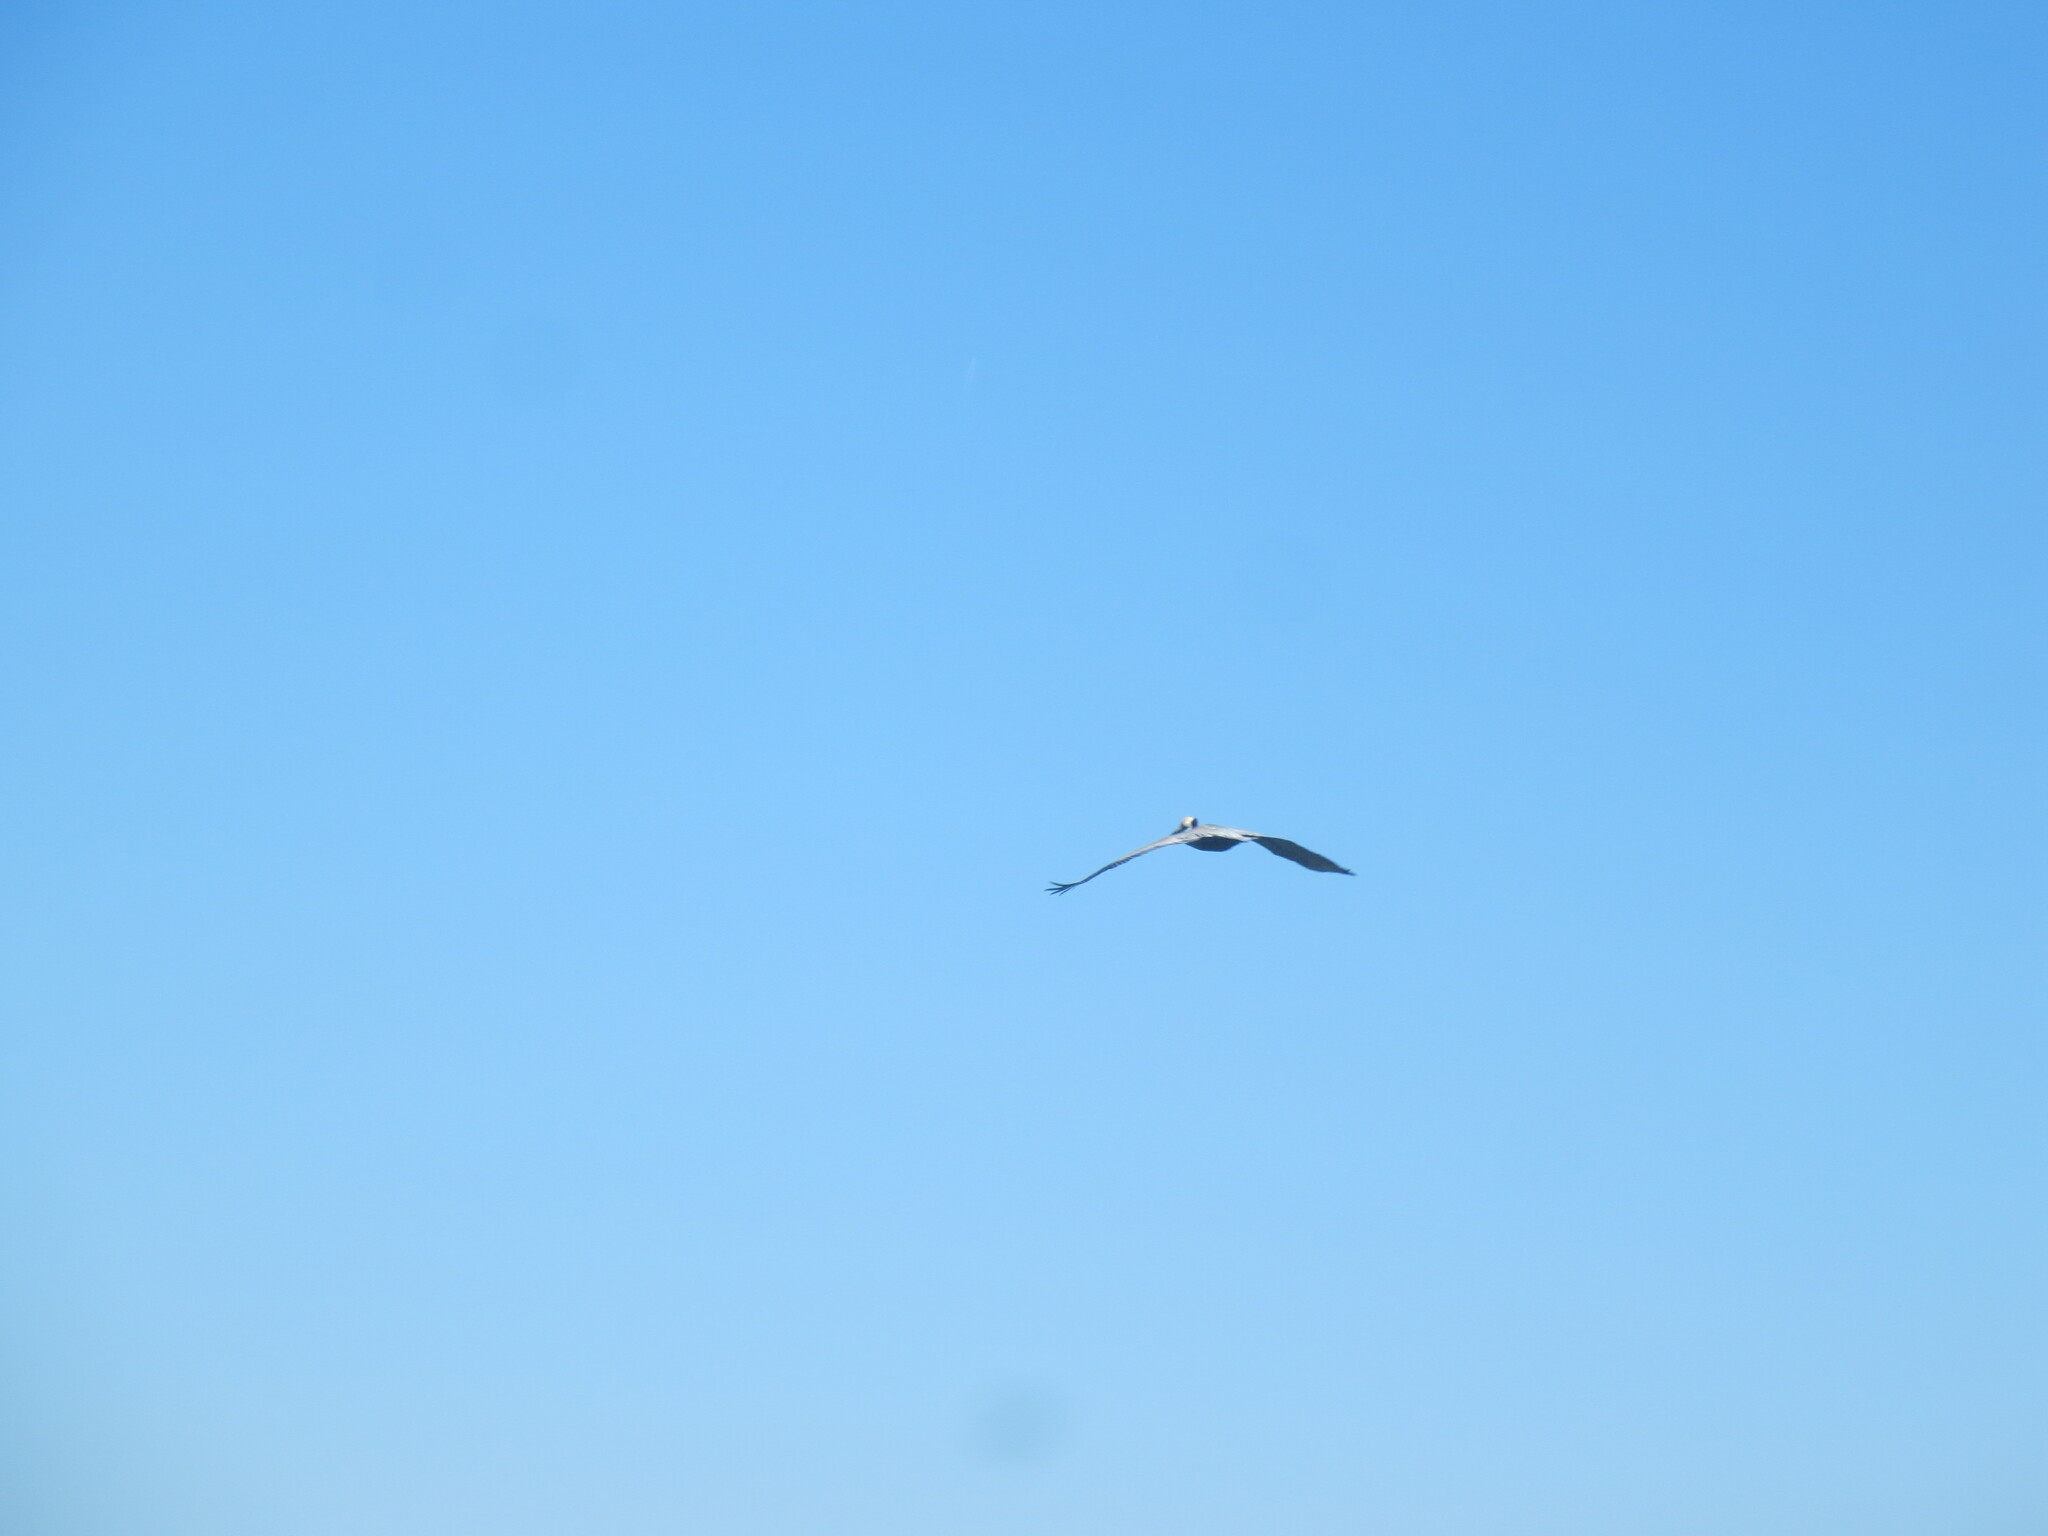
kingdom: Animalia
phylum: Chordata
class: Aves
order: Pelecaniformes
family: Pelecanidae
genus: Pelecanus
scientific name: Pelecanus occidentalis
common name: Brown pelican
